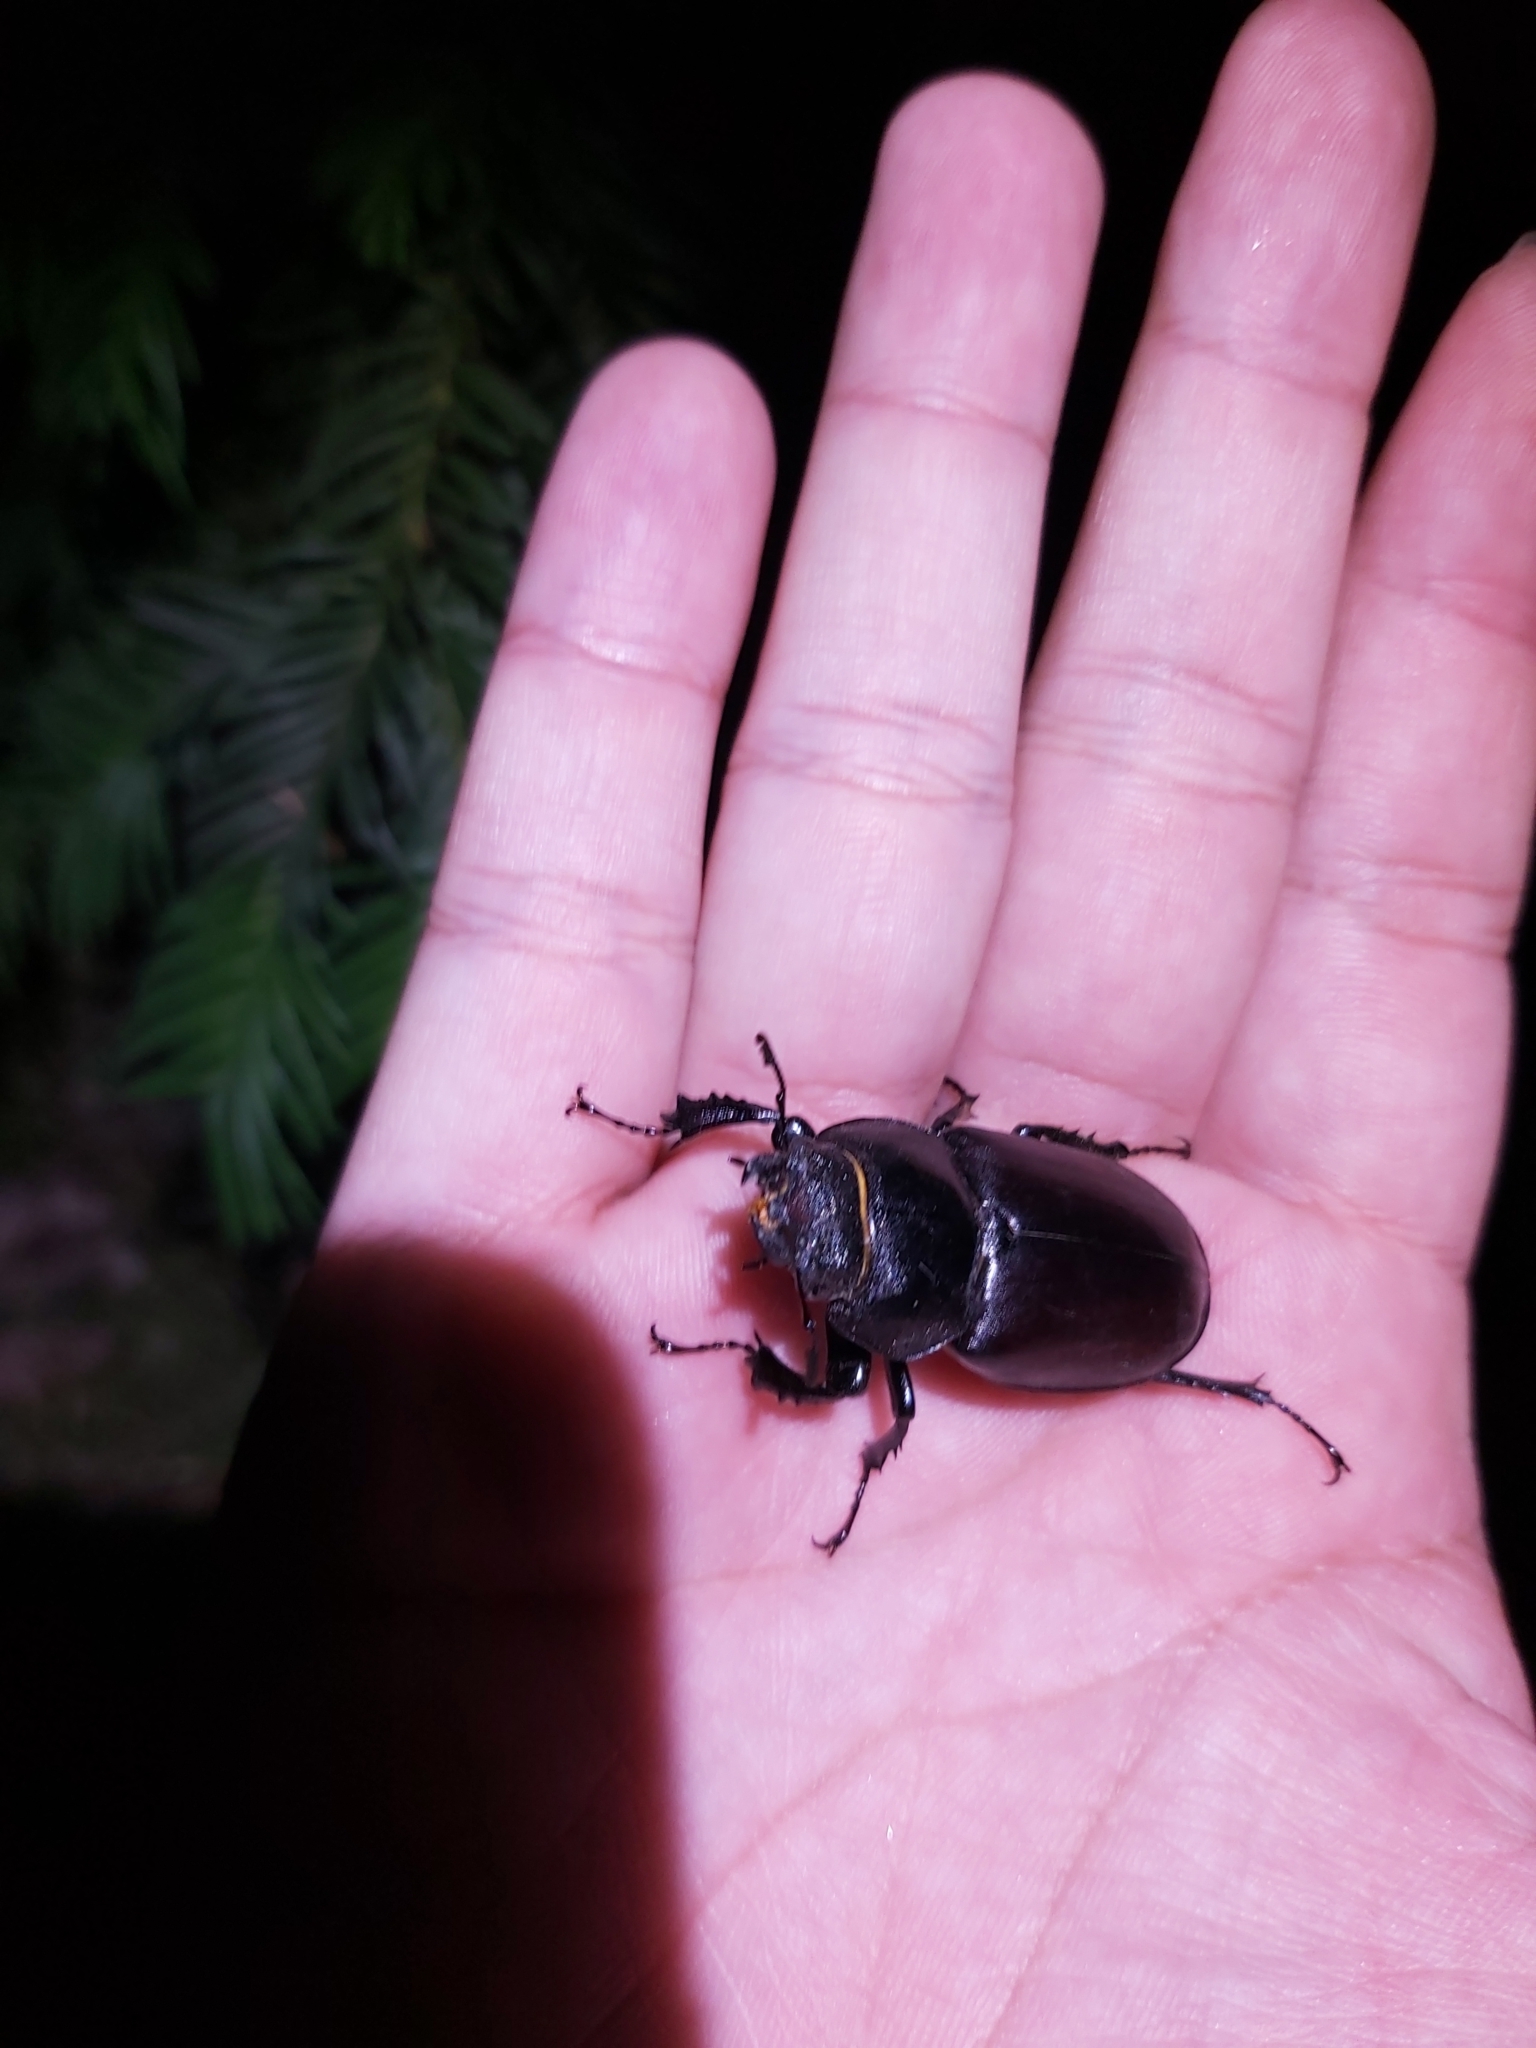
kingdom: Animalia
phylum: Arthropoda
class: Insecta
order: Coleoptera
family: Lucanidae
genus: Lucanus
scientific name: Lucanus cervus
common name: Stag beetle
